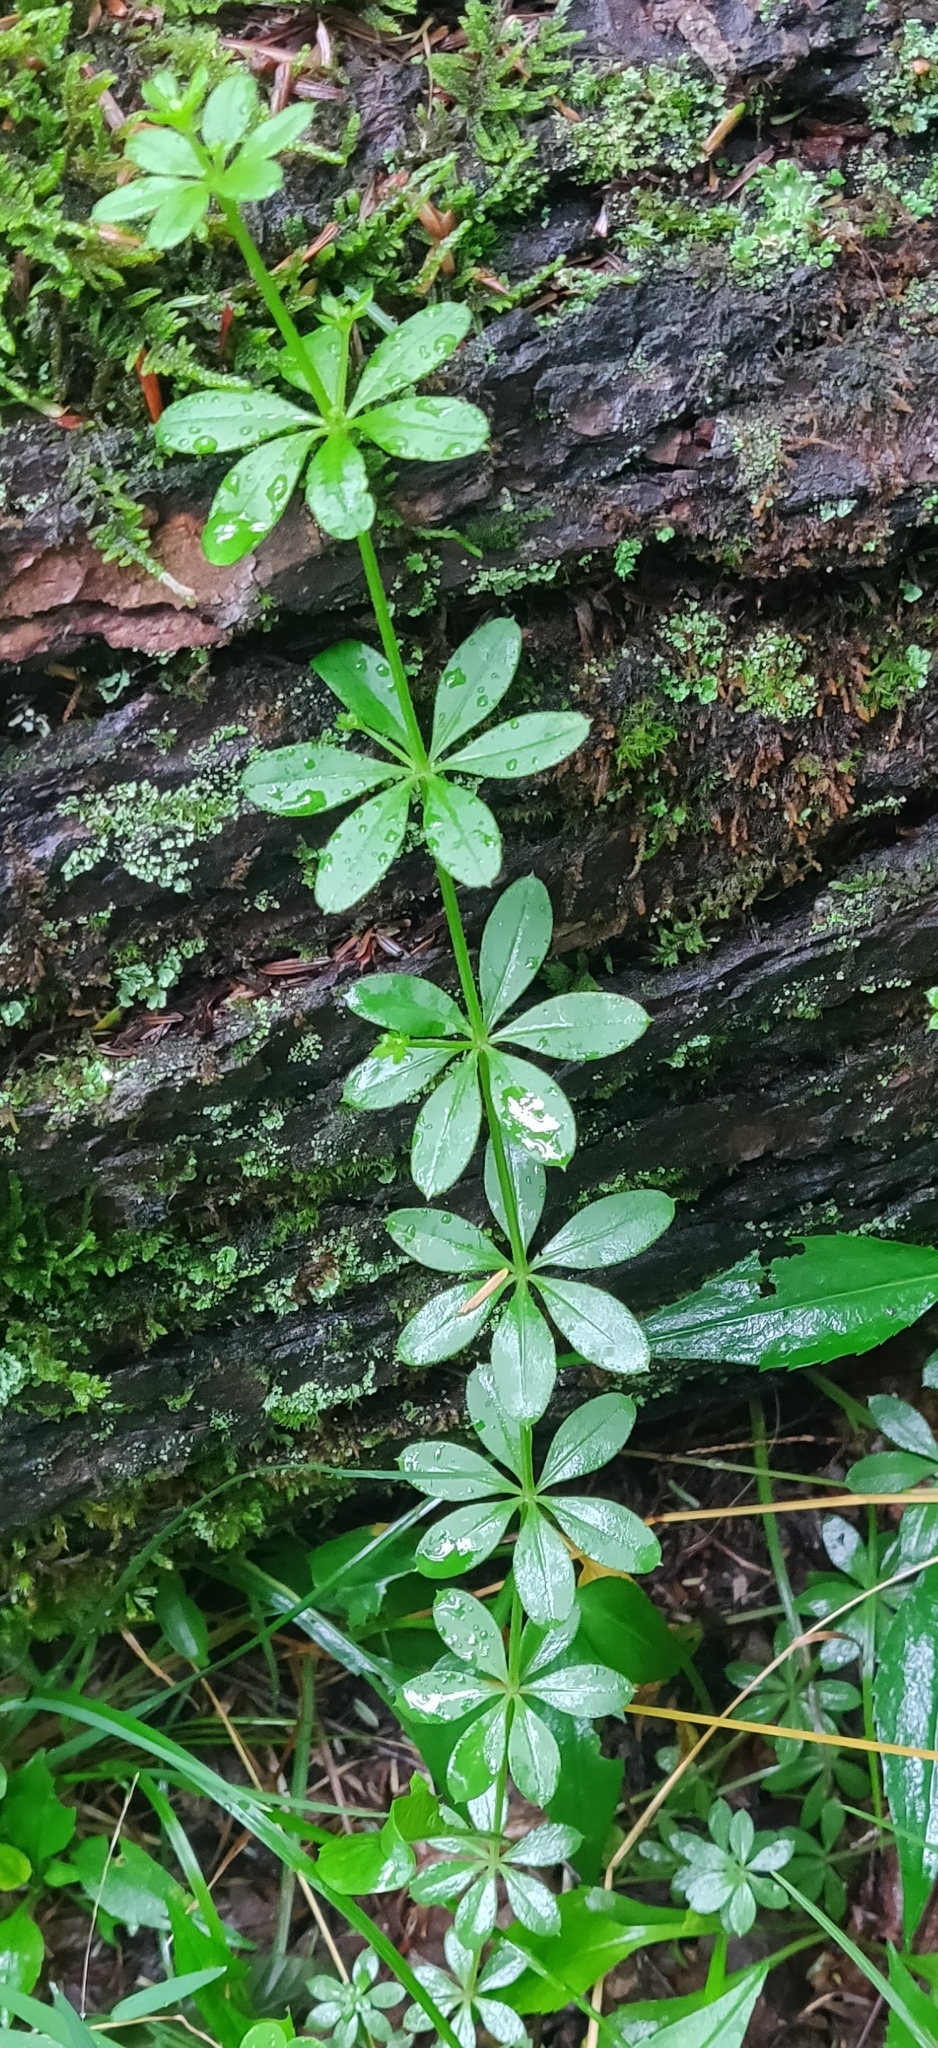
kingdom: Plantae
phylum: Tracheophyta
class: Magnoliopsida
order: Gentianales
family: Rubiaceae
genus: Galium
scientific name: Galium triflorum
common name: Fragrant bedstraw
